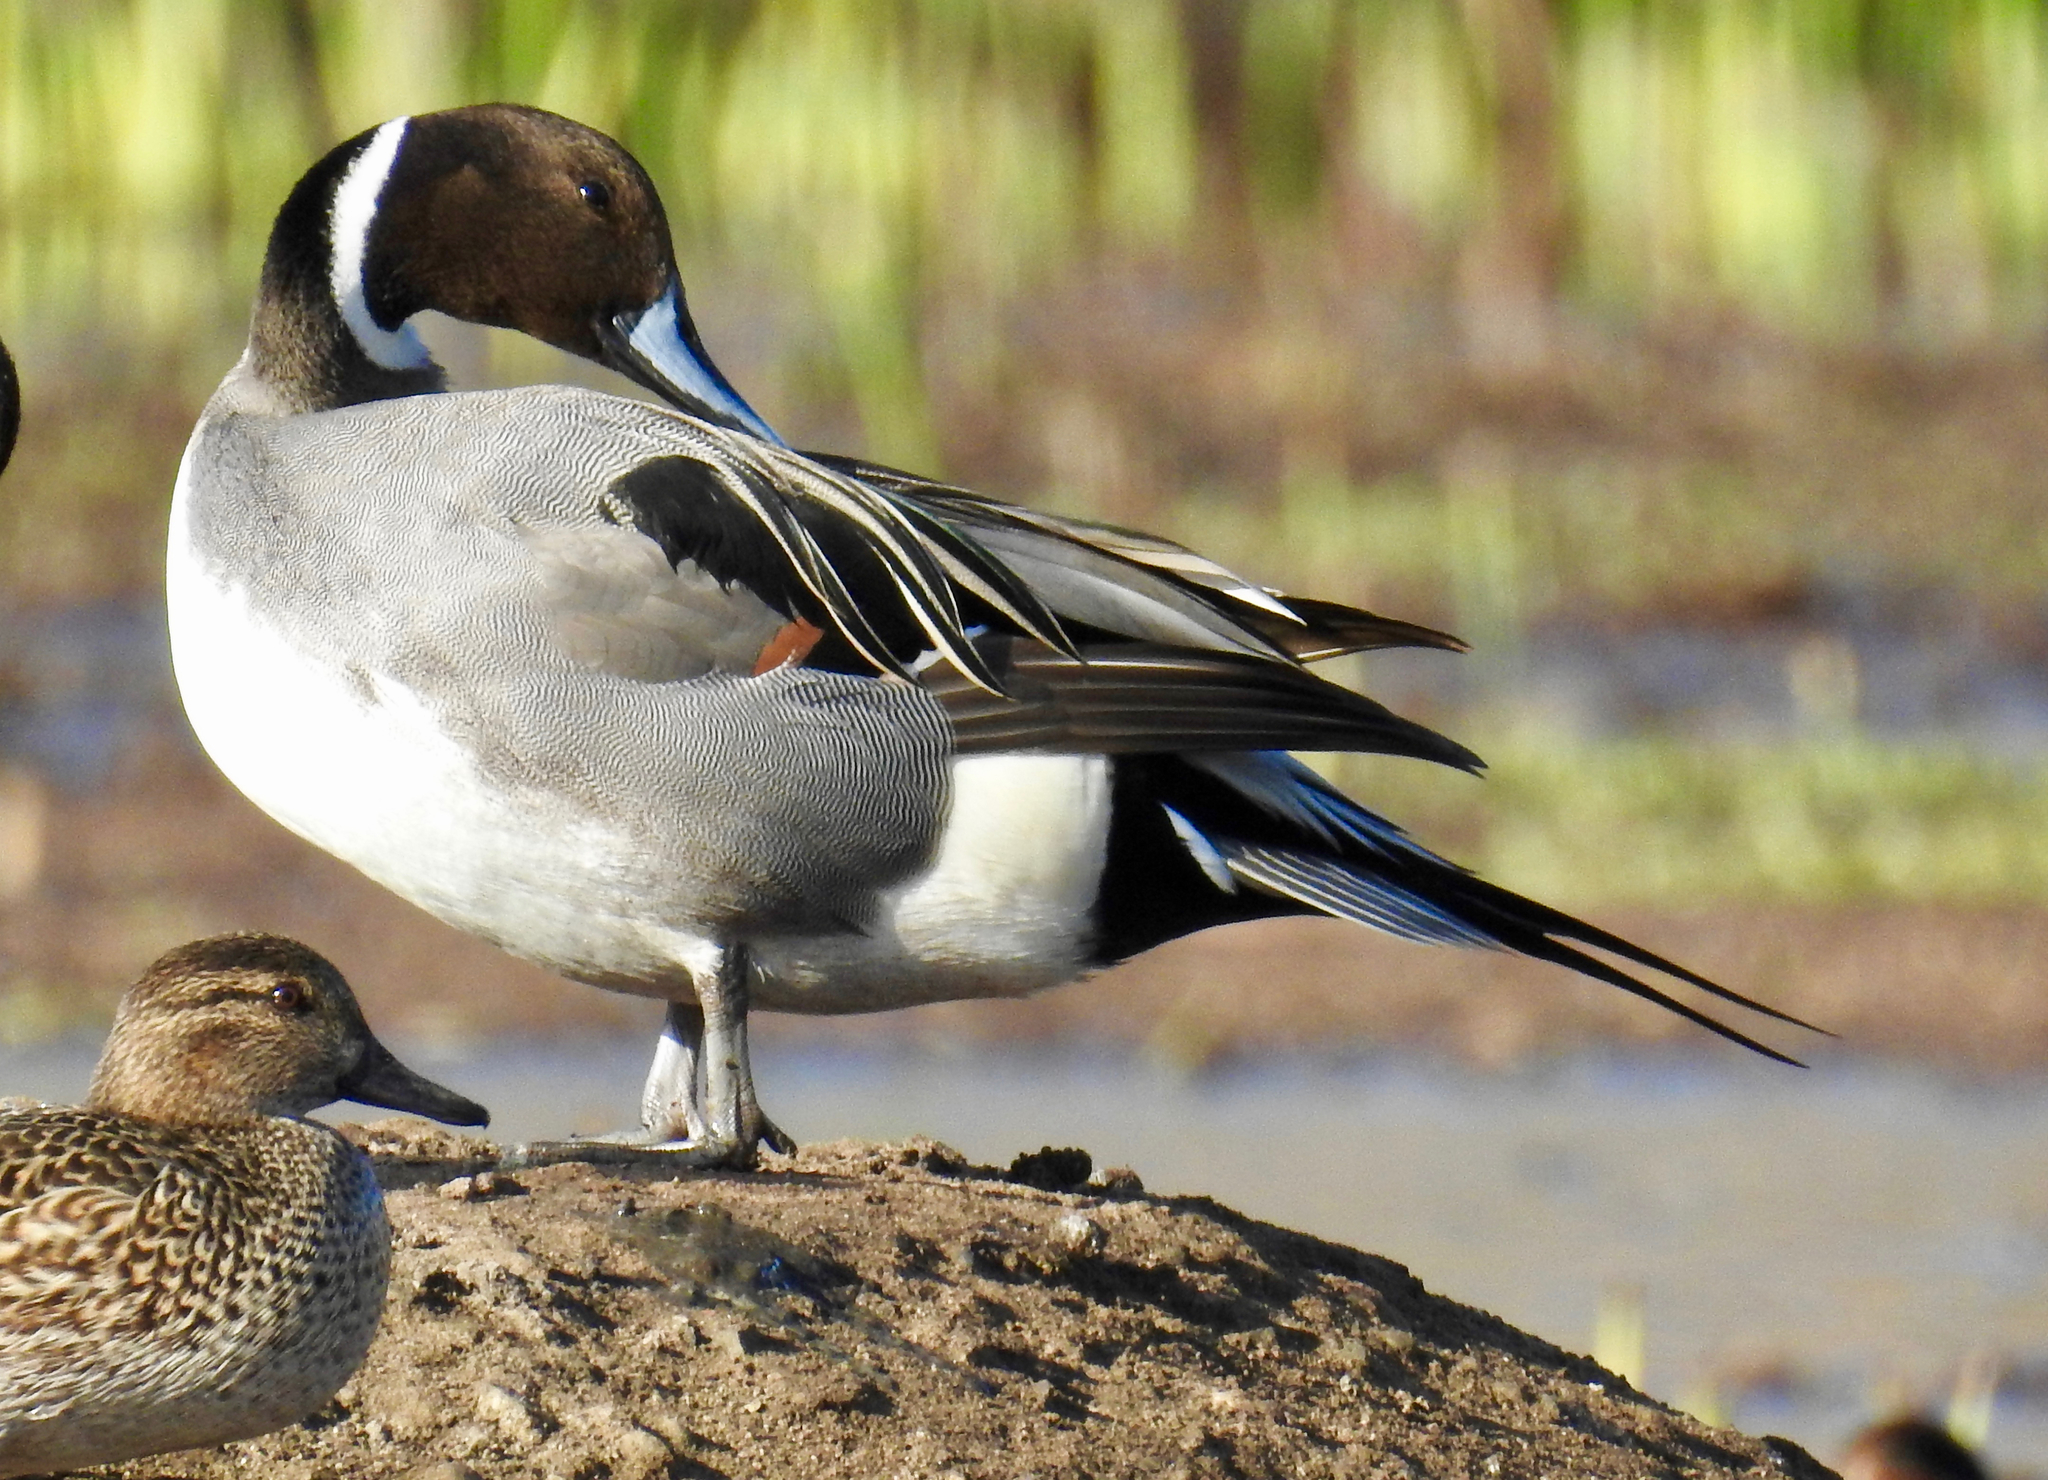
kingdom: Animalia
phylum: Chordata
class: Aves
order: Anseriformes
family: Anatidae
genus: Anas
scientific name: Anas acuta
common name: Northern pintail
